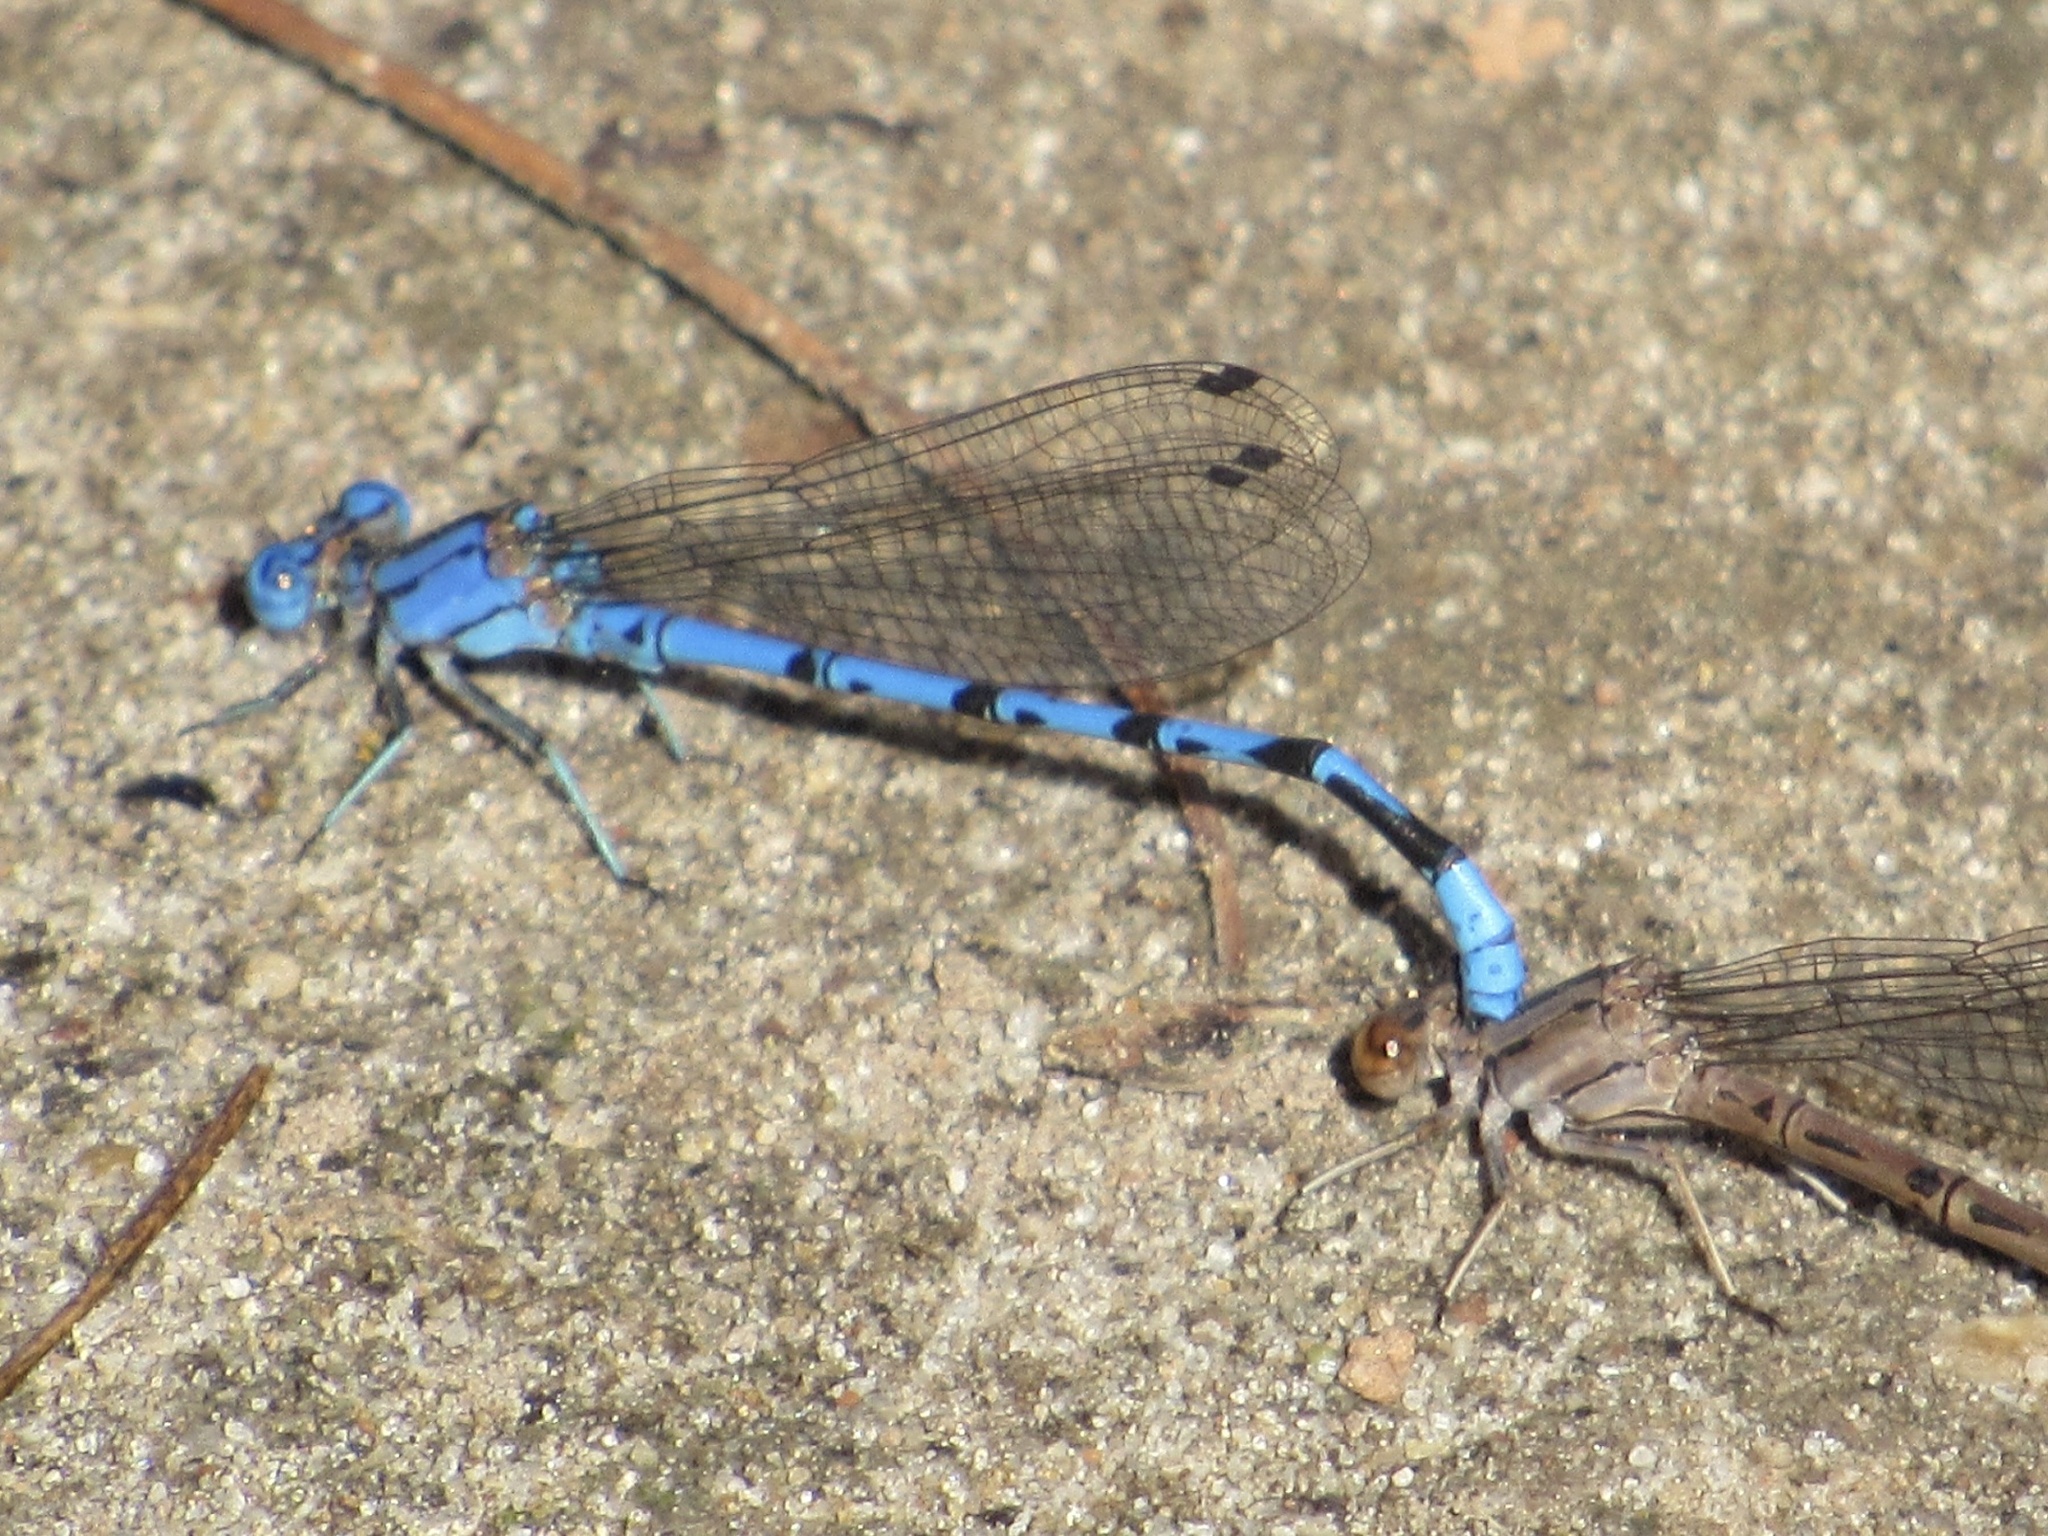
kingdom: Animalia
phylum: Arthropoda
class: Insecta
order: Odonata
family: Coenagrionidae
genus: Argia
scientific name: Argia funebris
